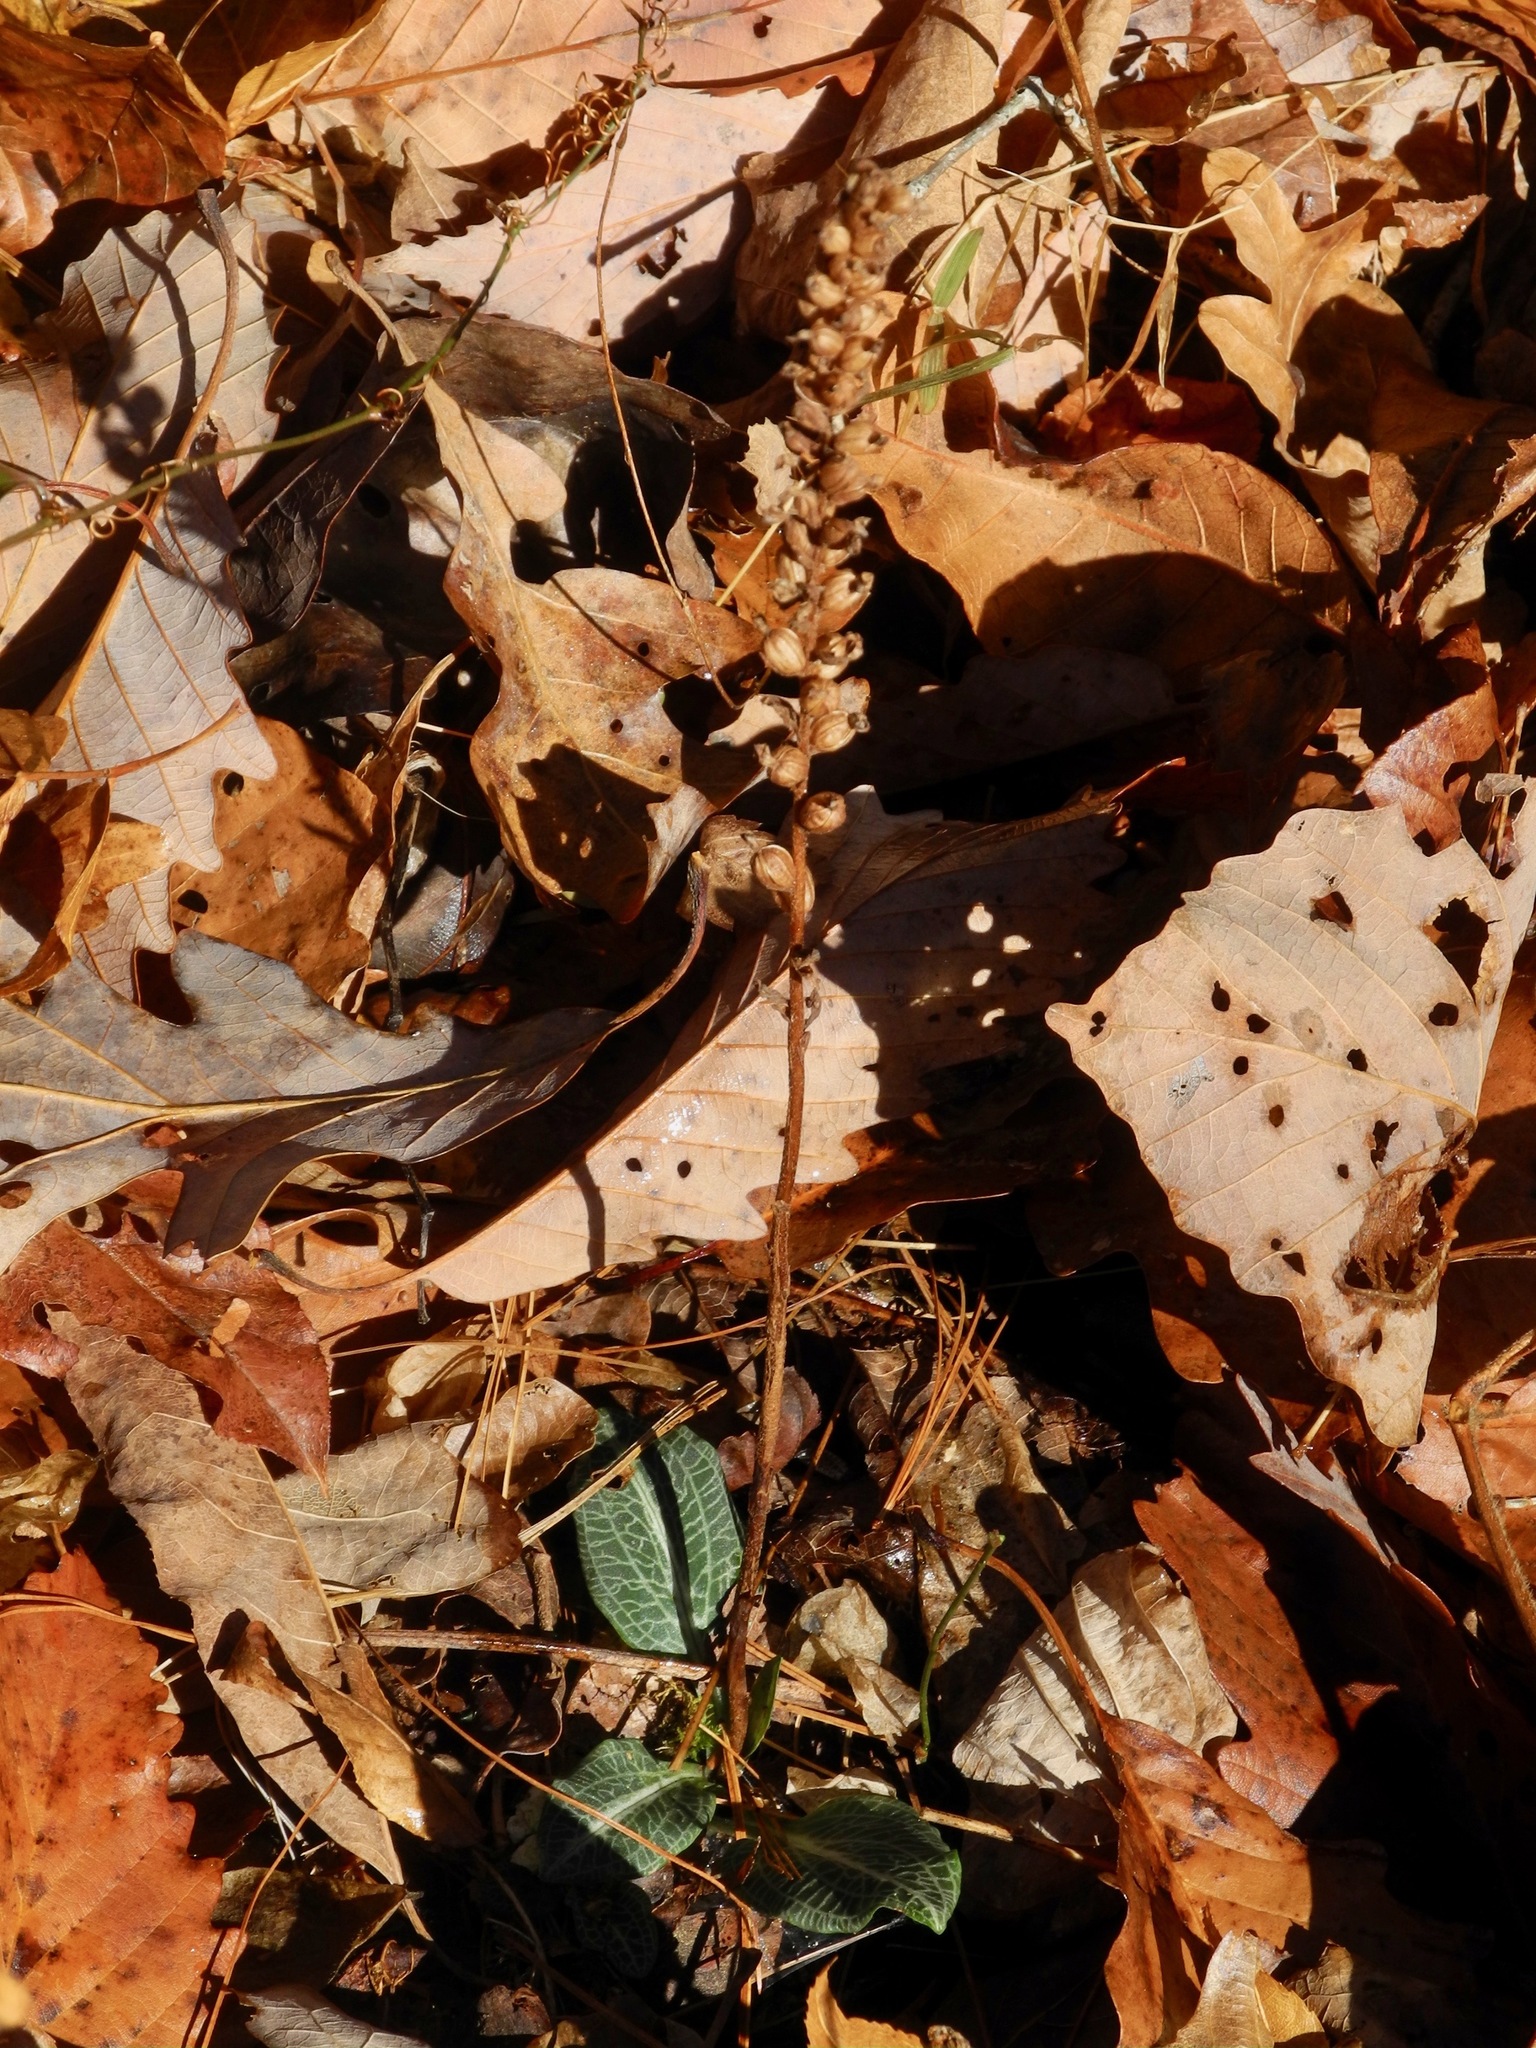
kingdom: Plantae
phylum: Tracheophyta
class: Liliopsida
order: Asparagales
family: Orchidaceae
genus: Goodyera
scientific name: Goodyera pubescens
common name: Downy rattlesnake-plantain
